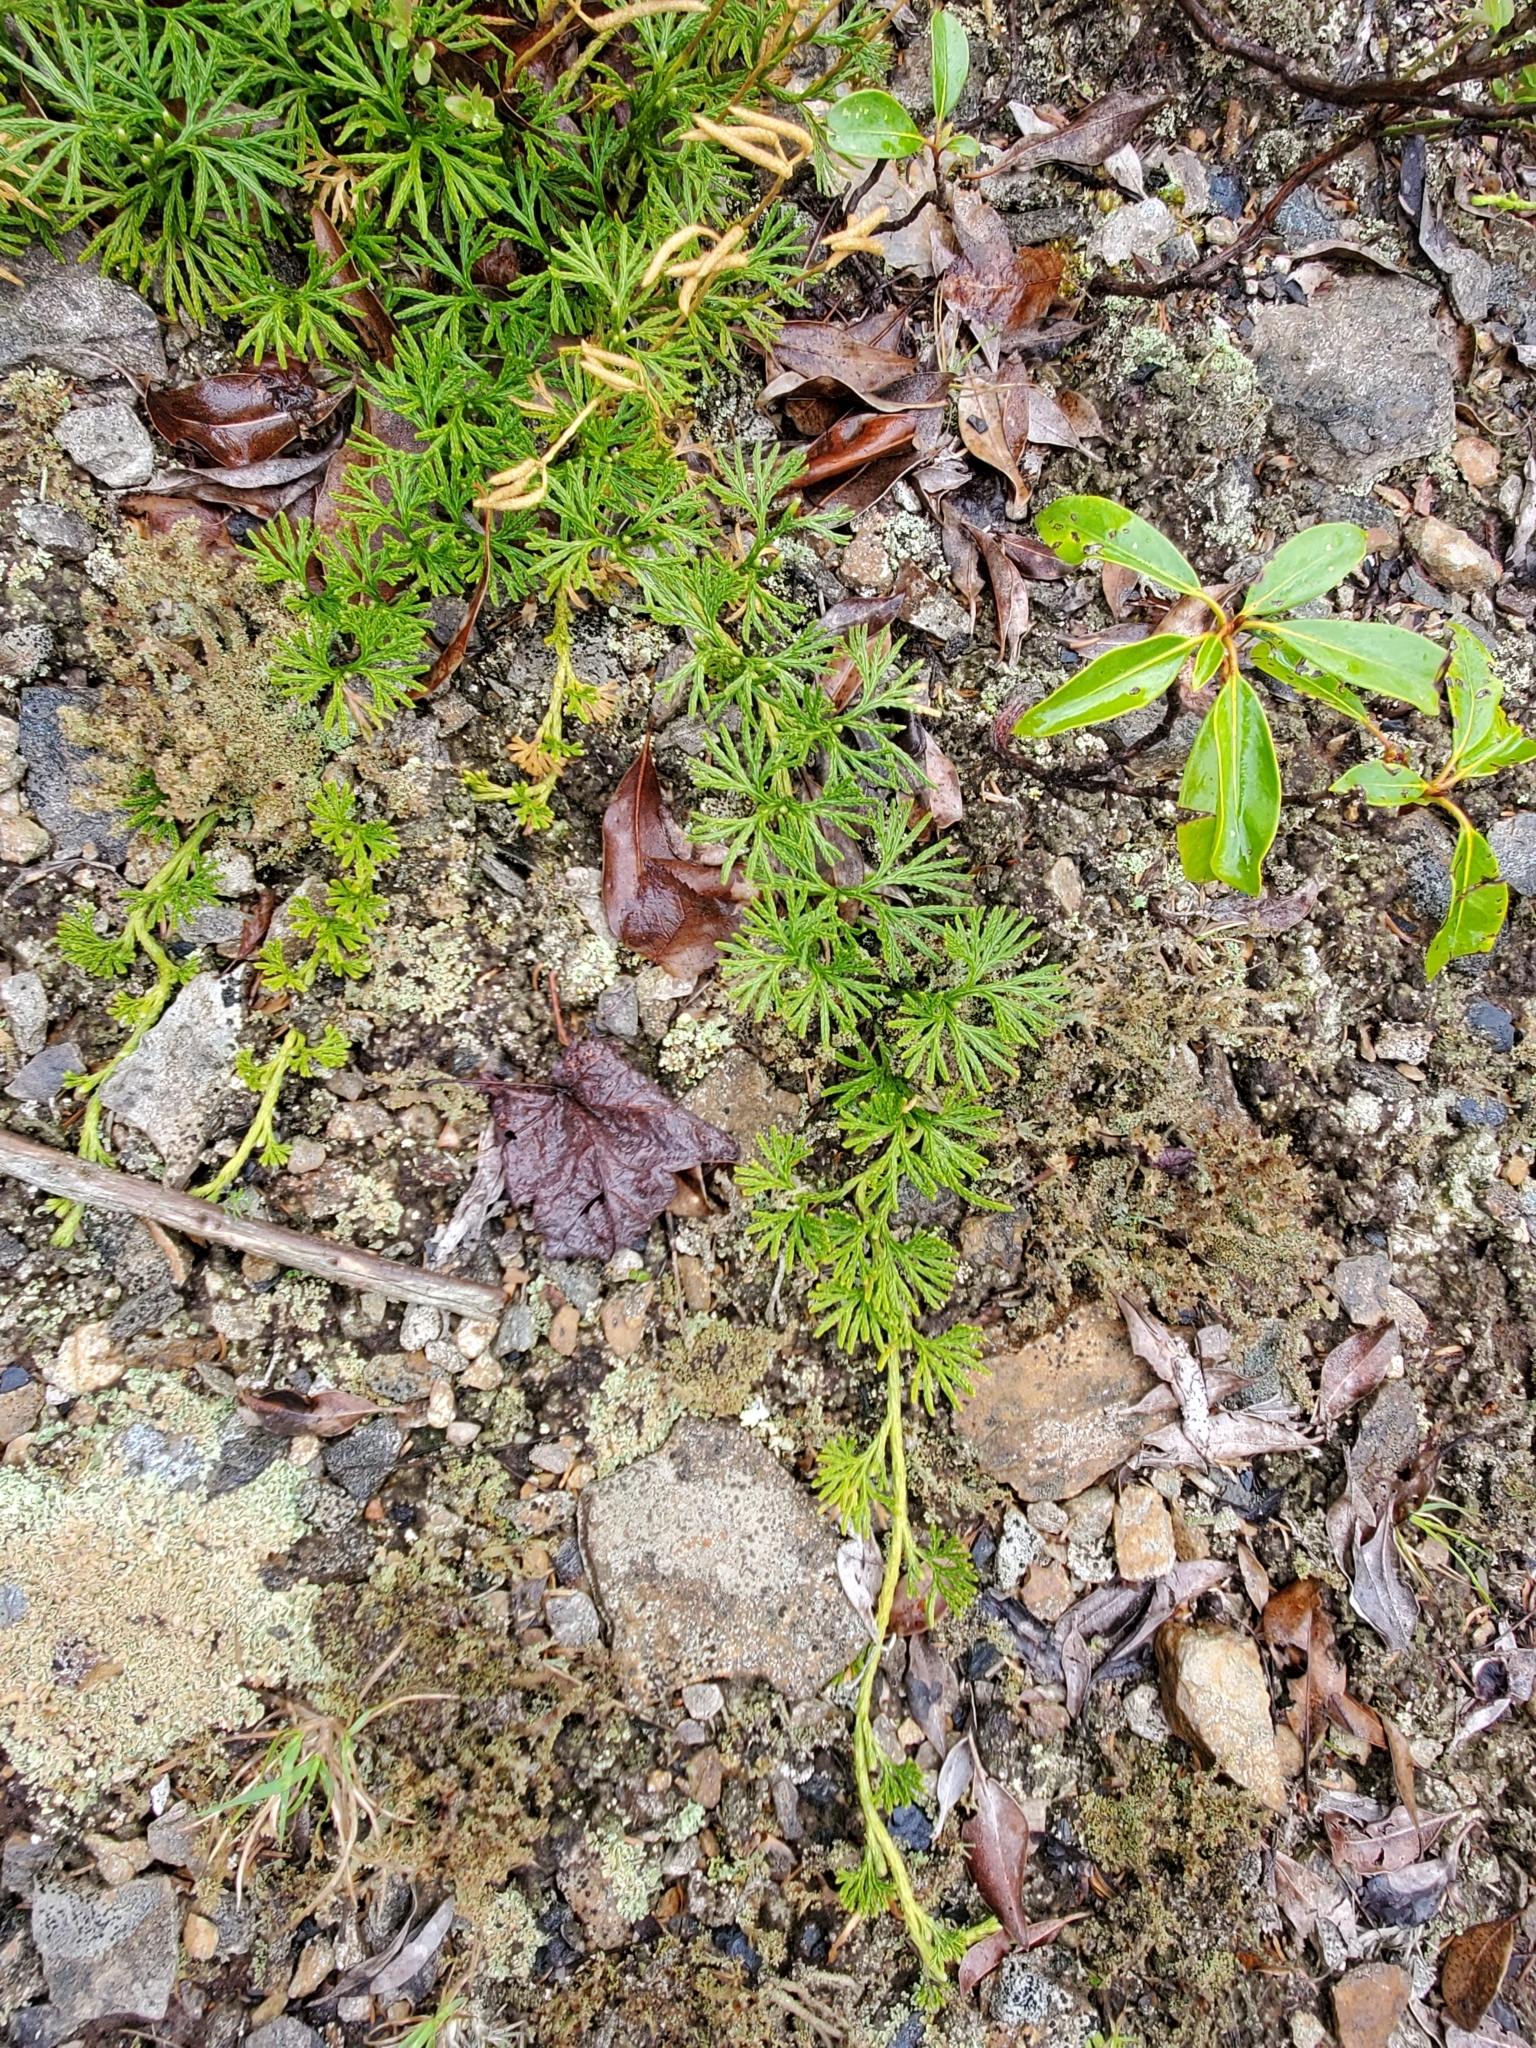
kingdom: Plantae
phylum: Tracheophyta
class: Lycopodiopsida
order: Lycopodiales
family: Lycopodiaceae
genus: Diphasiastrum
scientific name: Diphasiastrum digitatum
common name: Southern running-pine
